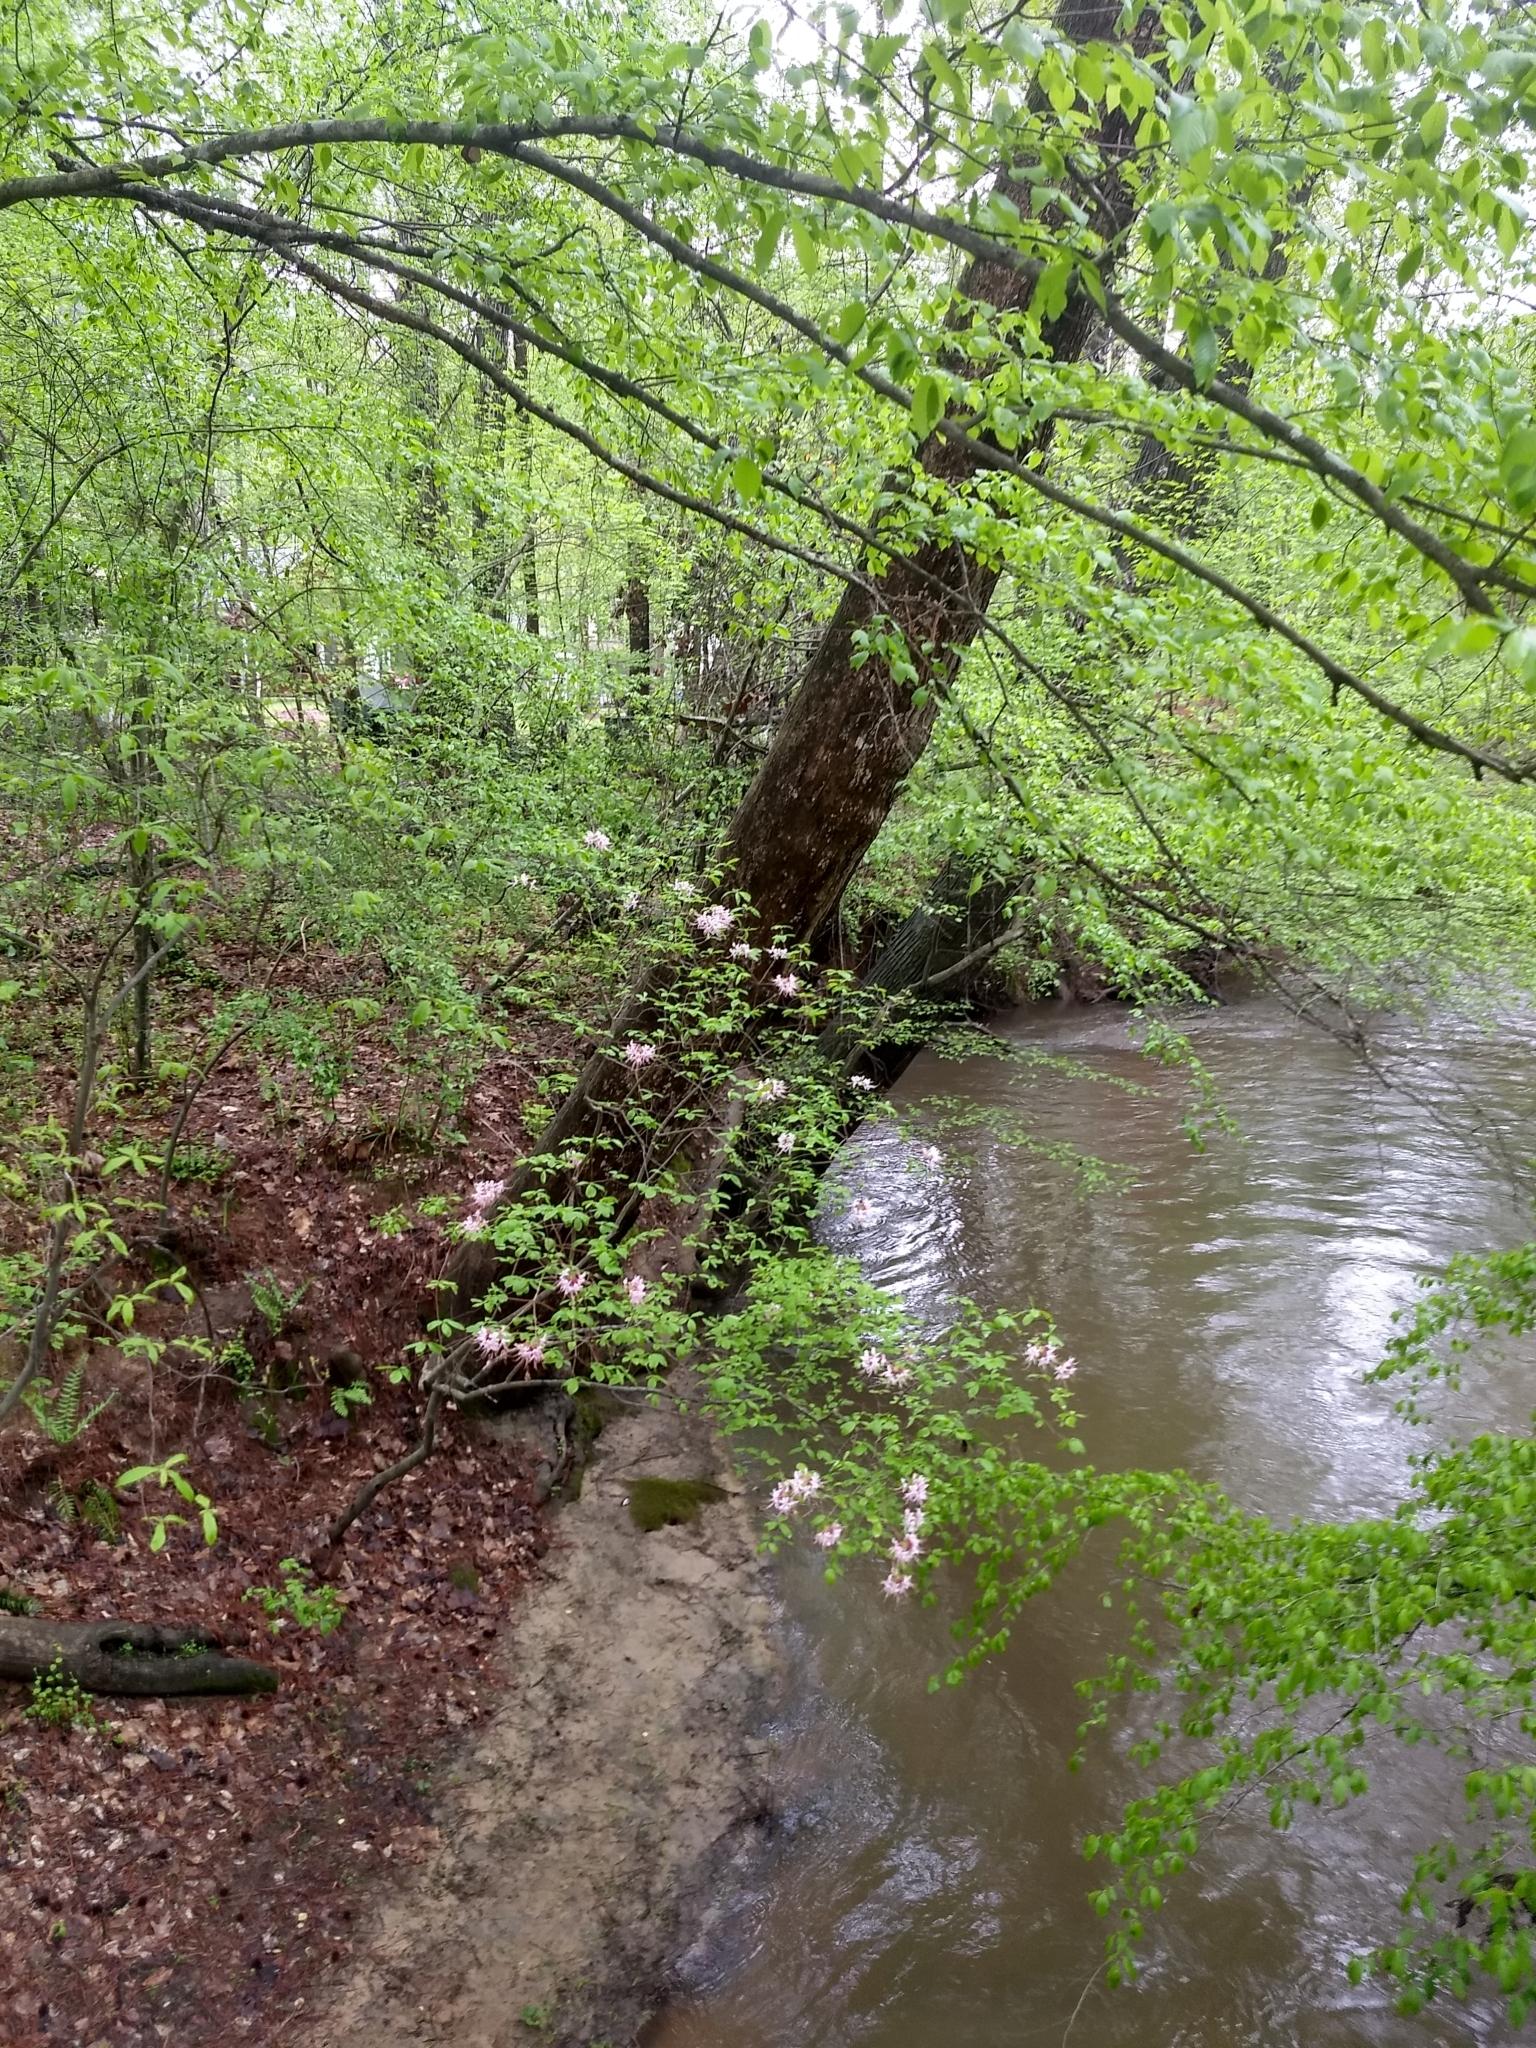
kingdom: Plantae
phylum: Tracheophyta
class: Magnoliopsida
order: Ericales
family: Ericaceae
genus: Rhododendron
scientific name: Rhododendron periclymenoides
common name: Election-pink
